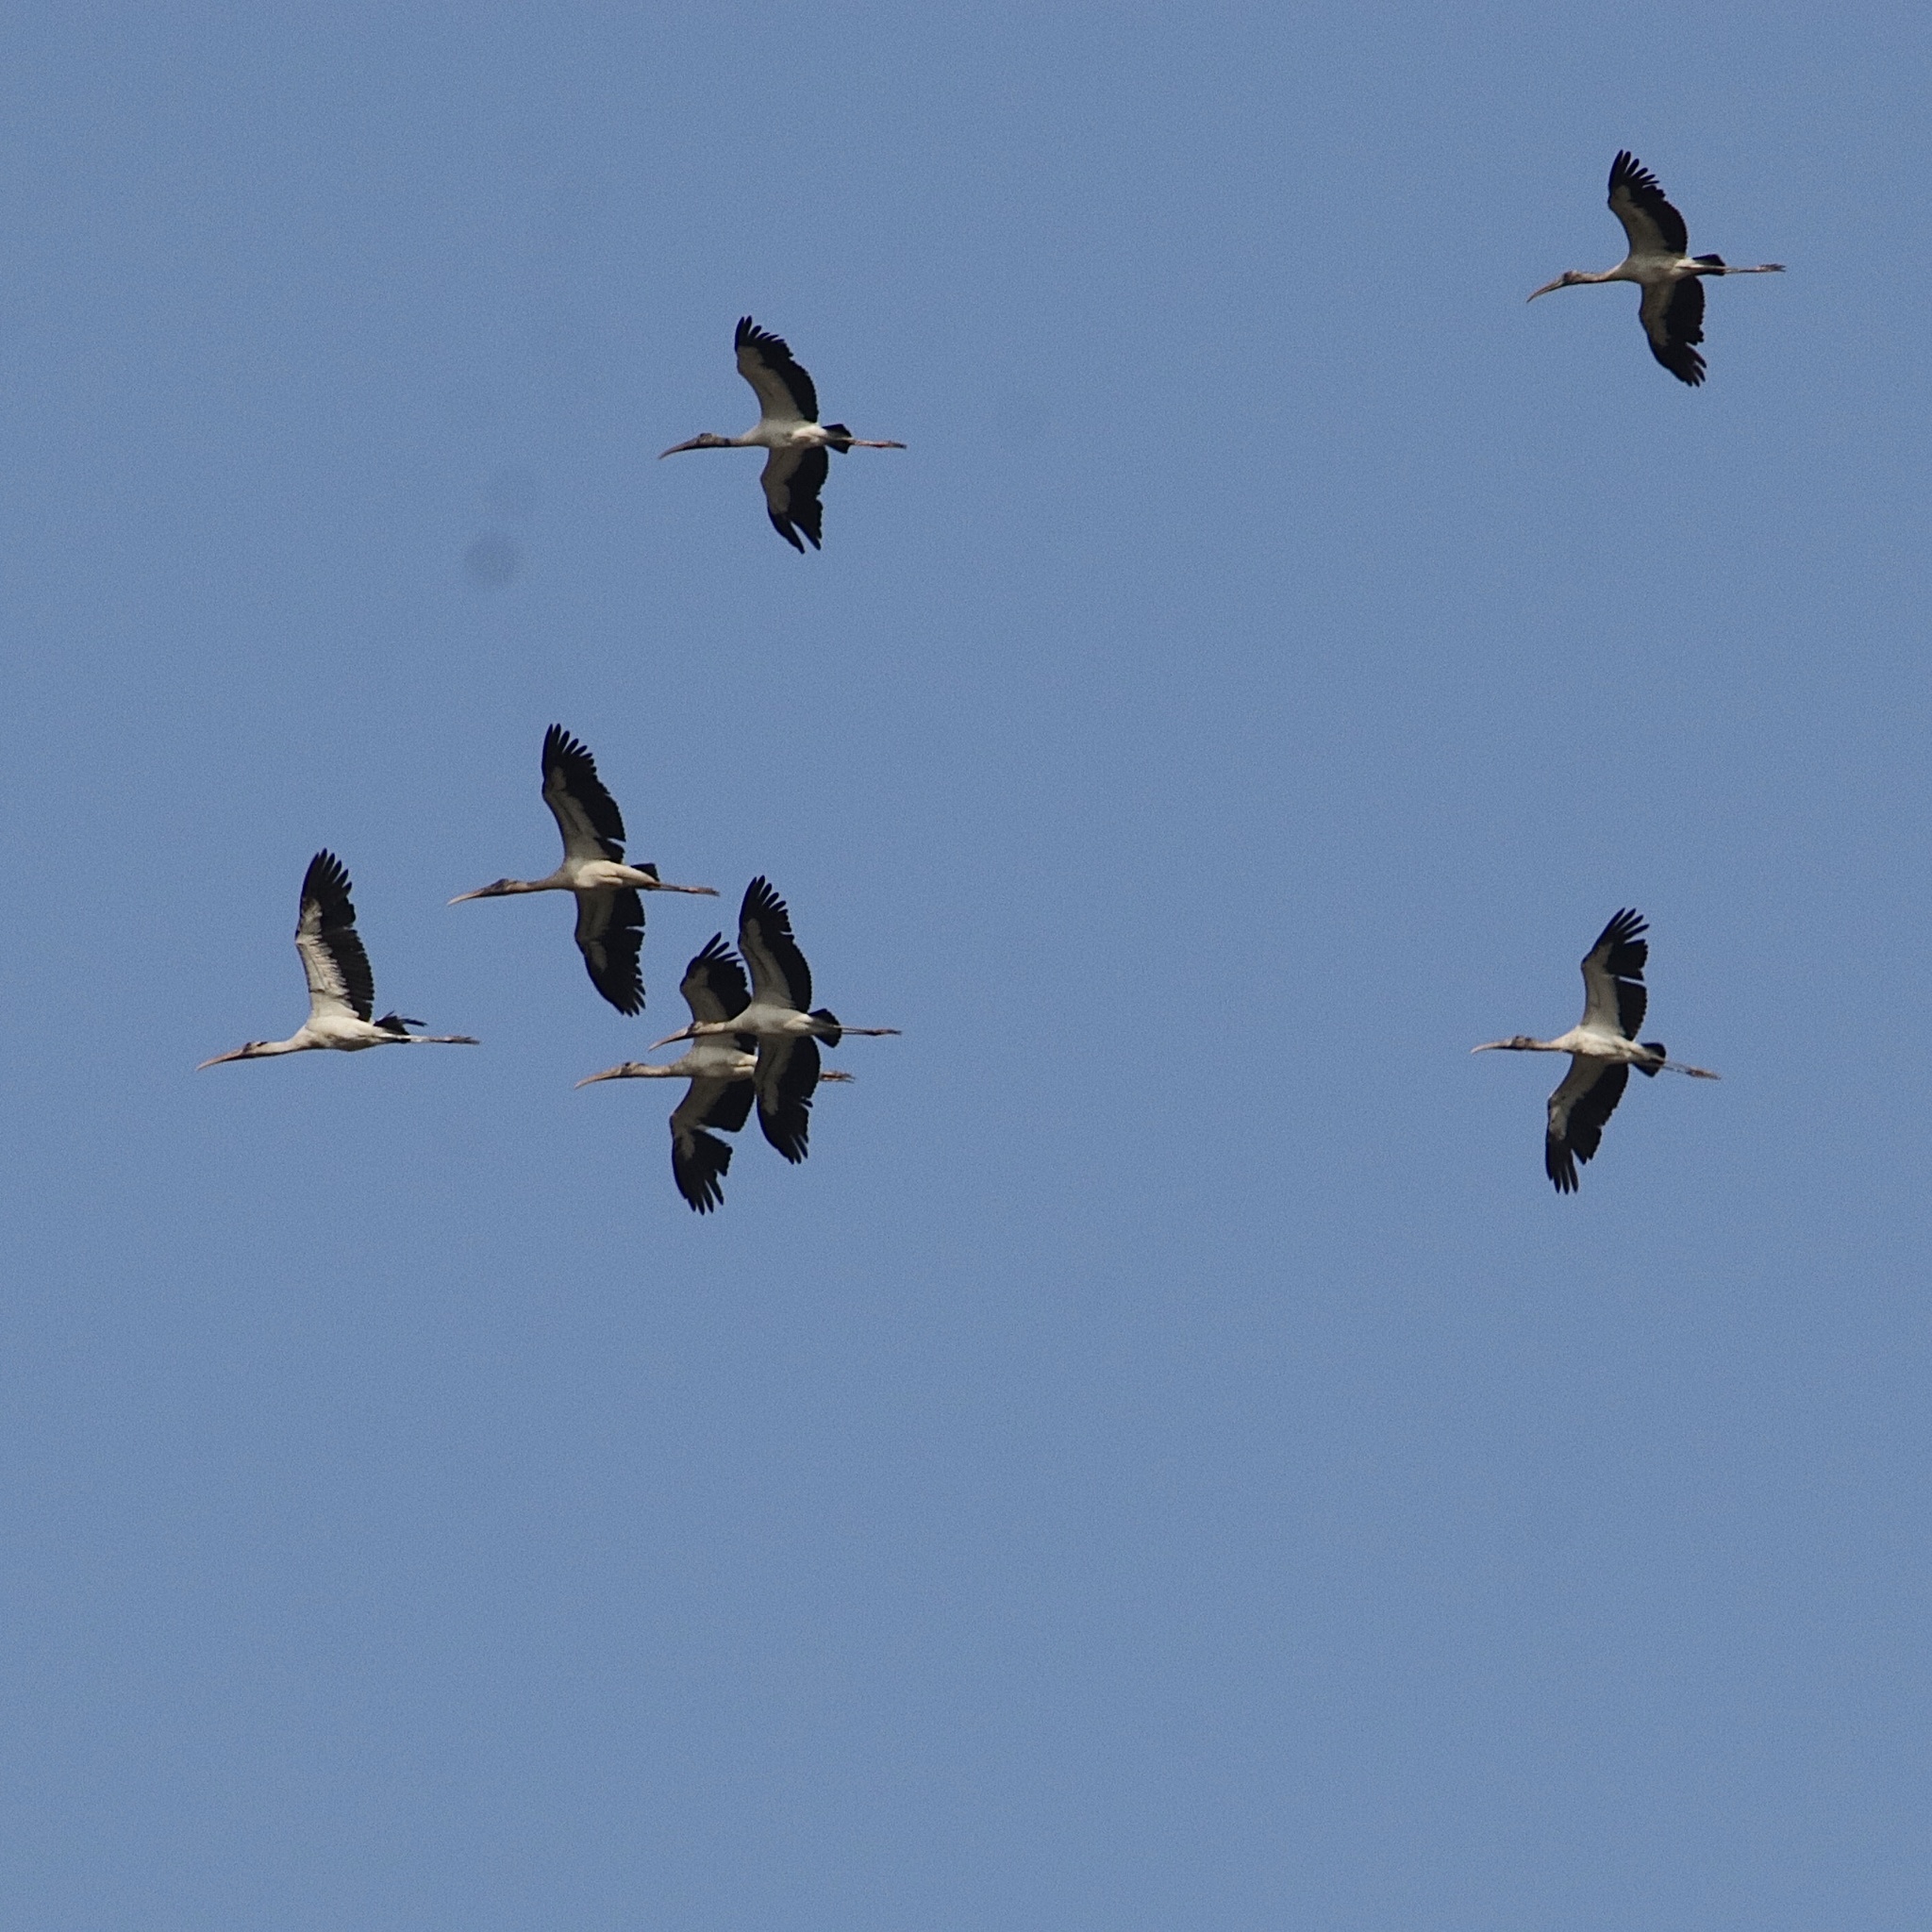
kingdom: Animalia
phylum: Chordata
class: Aves
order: Ciconiiformes
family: Ciconiidae
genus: Mycteria
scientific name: Mycteria americana
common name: Wood stork
